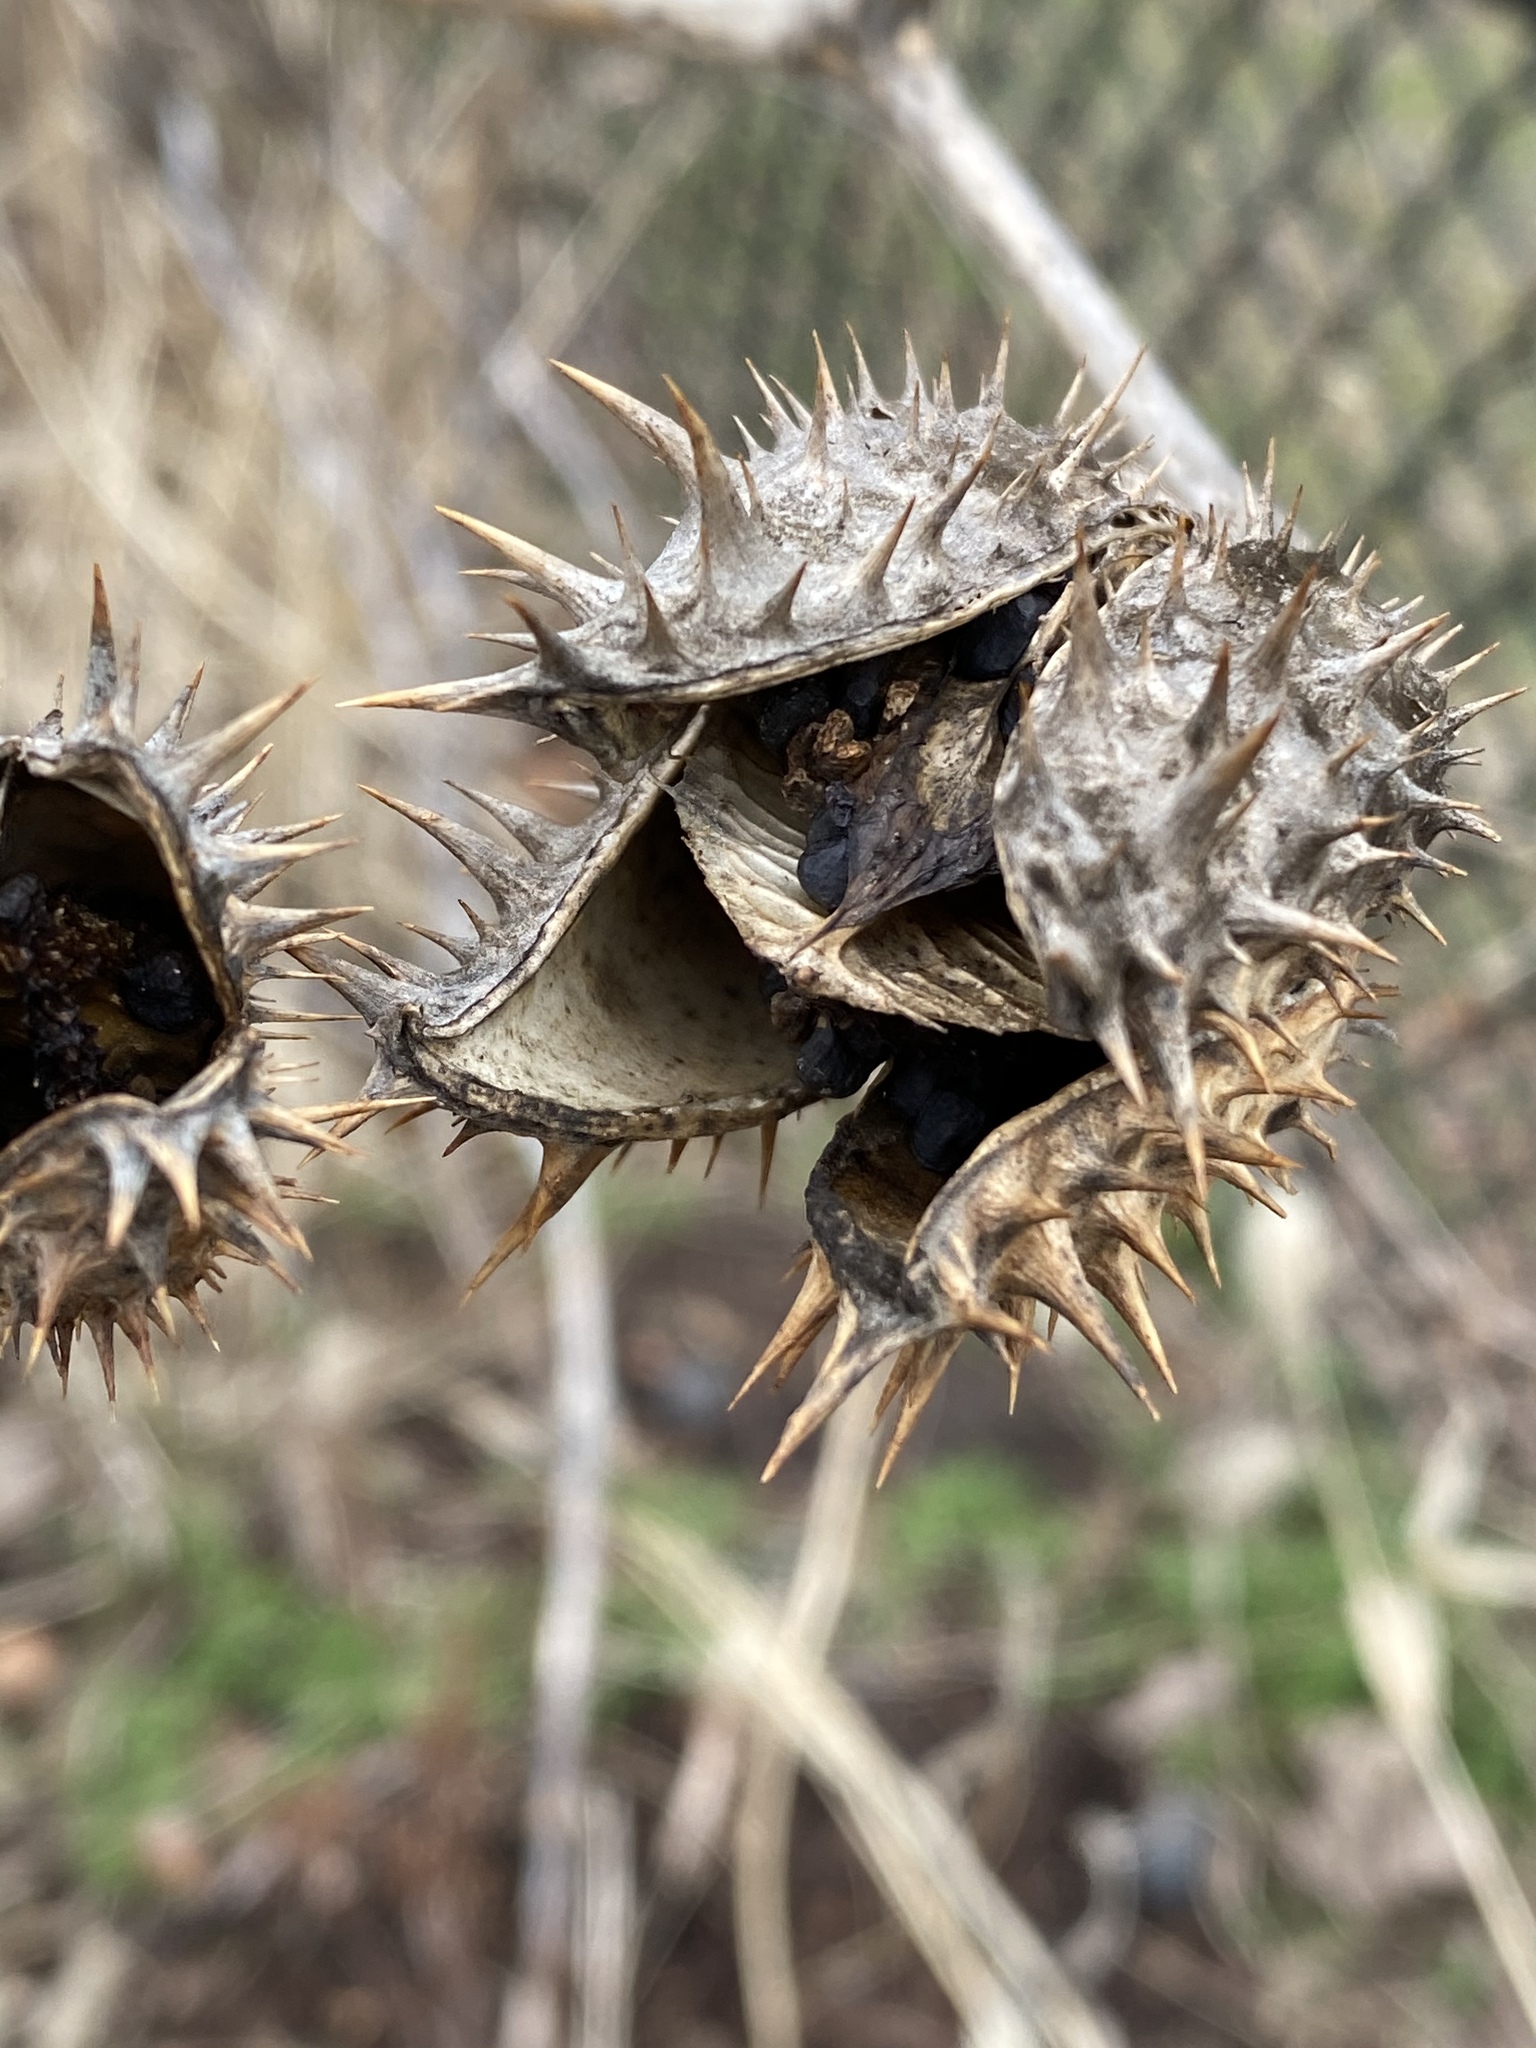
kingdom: Plantae
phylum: Tracheophyta
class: Magnoliopsida
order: Solanales
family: Solanaceae
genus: Datura
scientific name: Datura stramonium
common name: Thorn-apple
